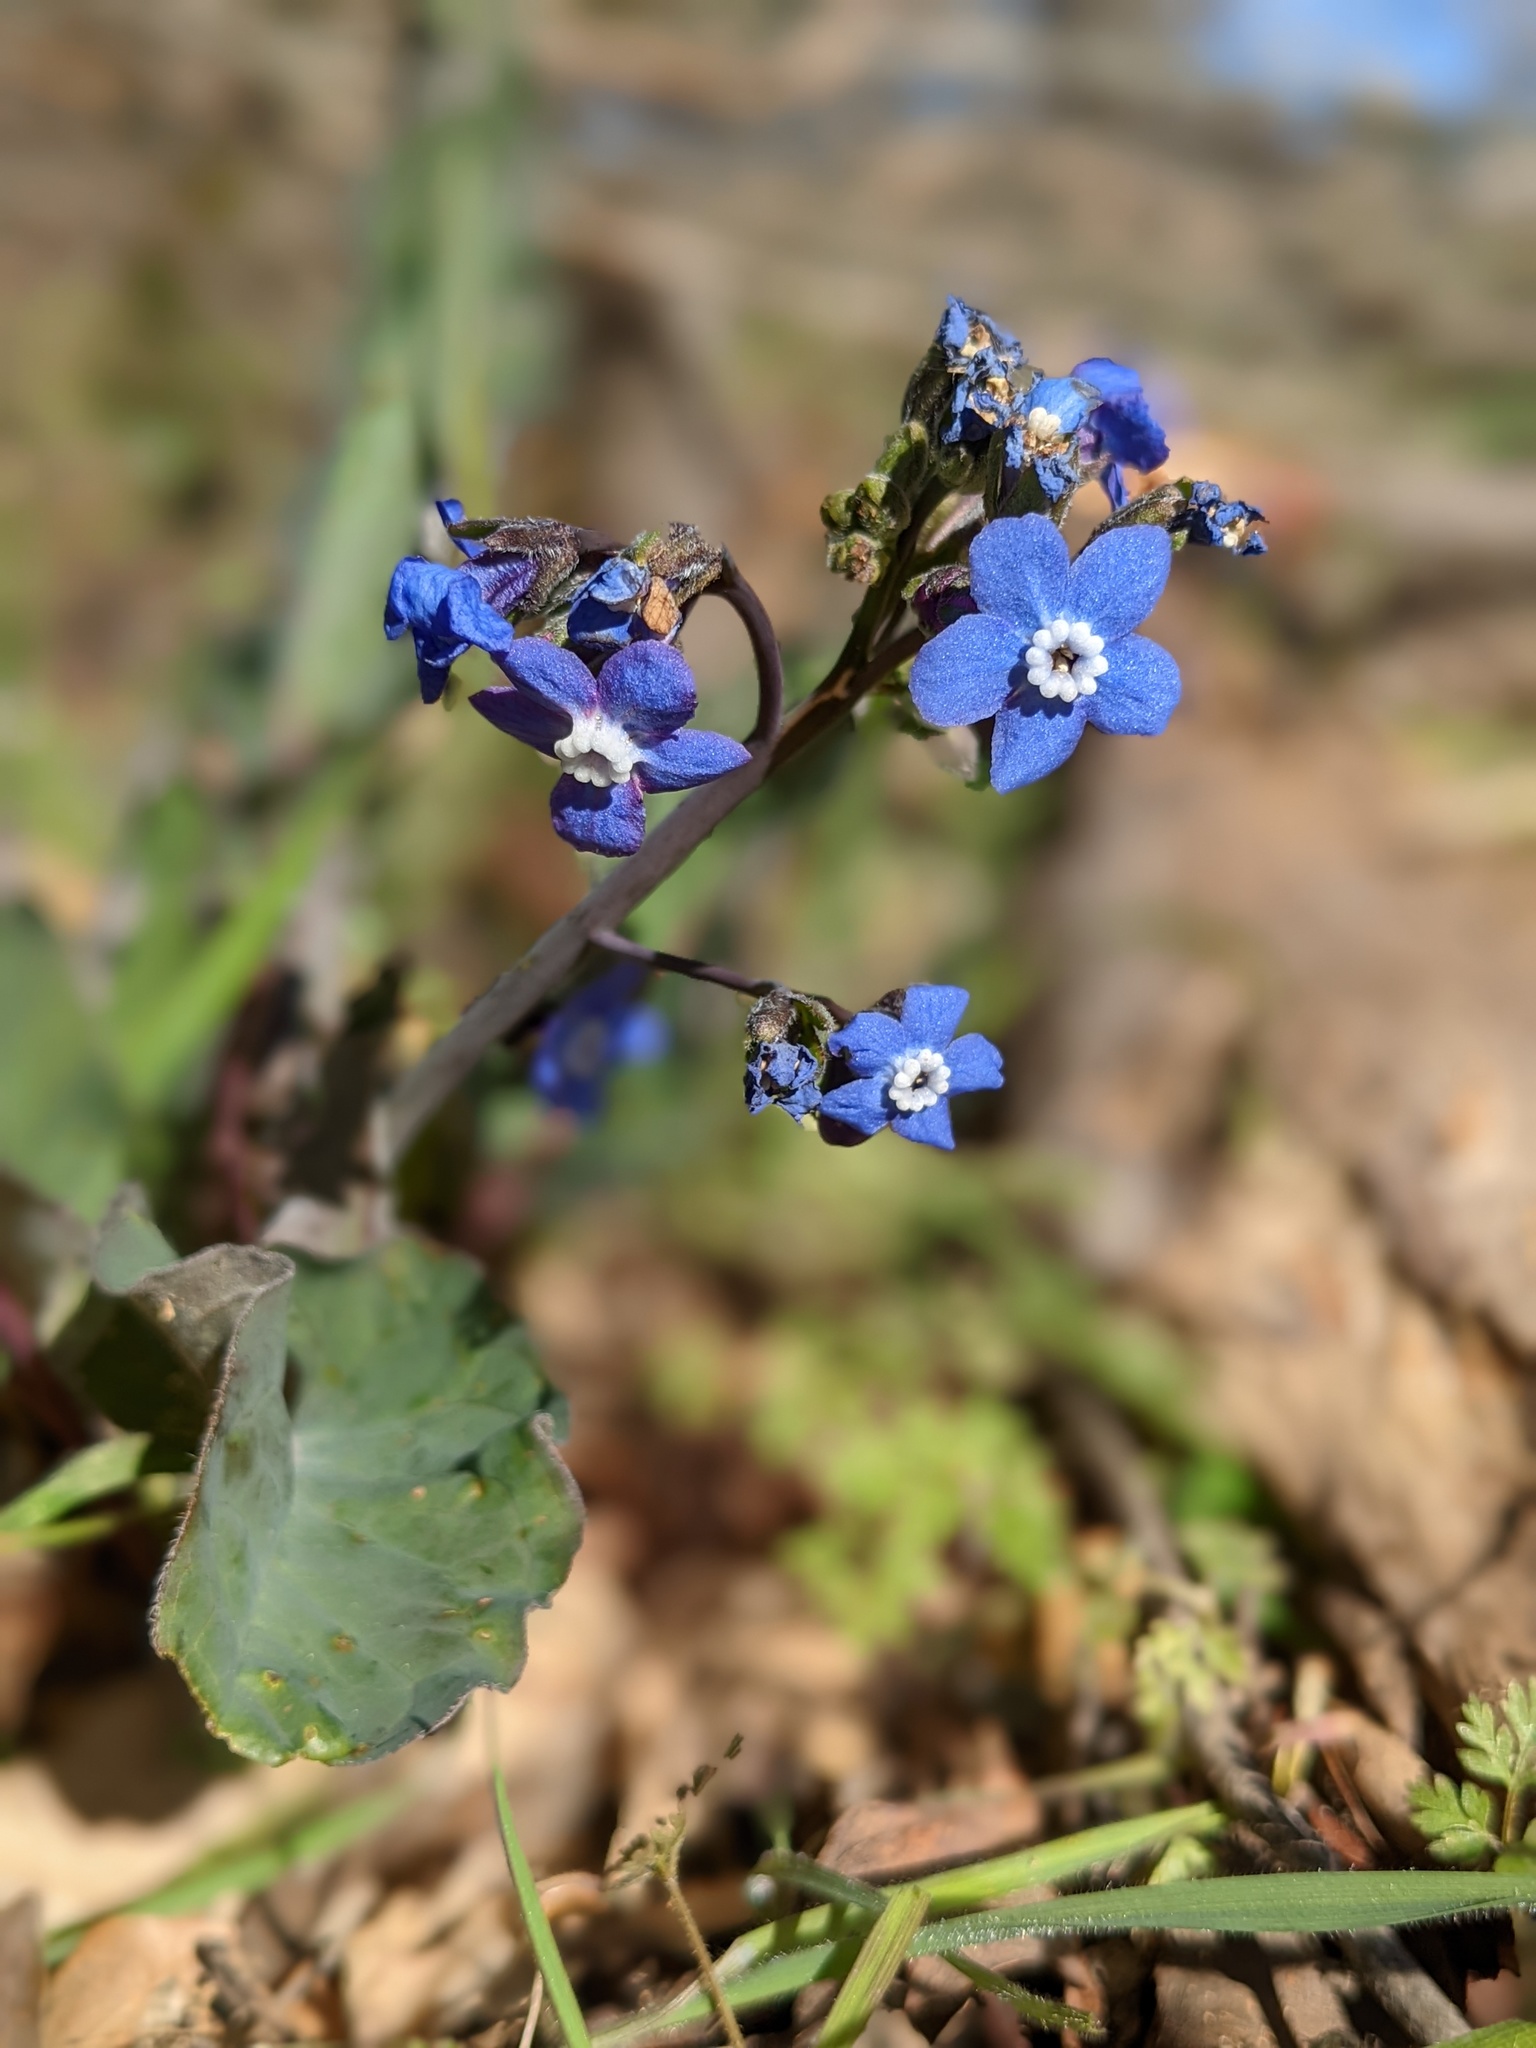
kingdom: Plantae
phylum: Tracheophyta
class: Magnoliopsida
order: Boraginales
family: Boraginaceae
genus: Adelinia
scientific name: Adelinia grande
